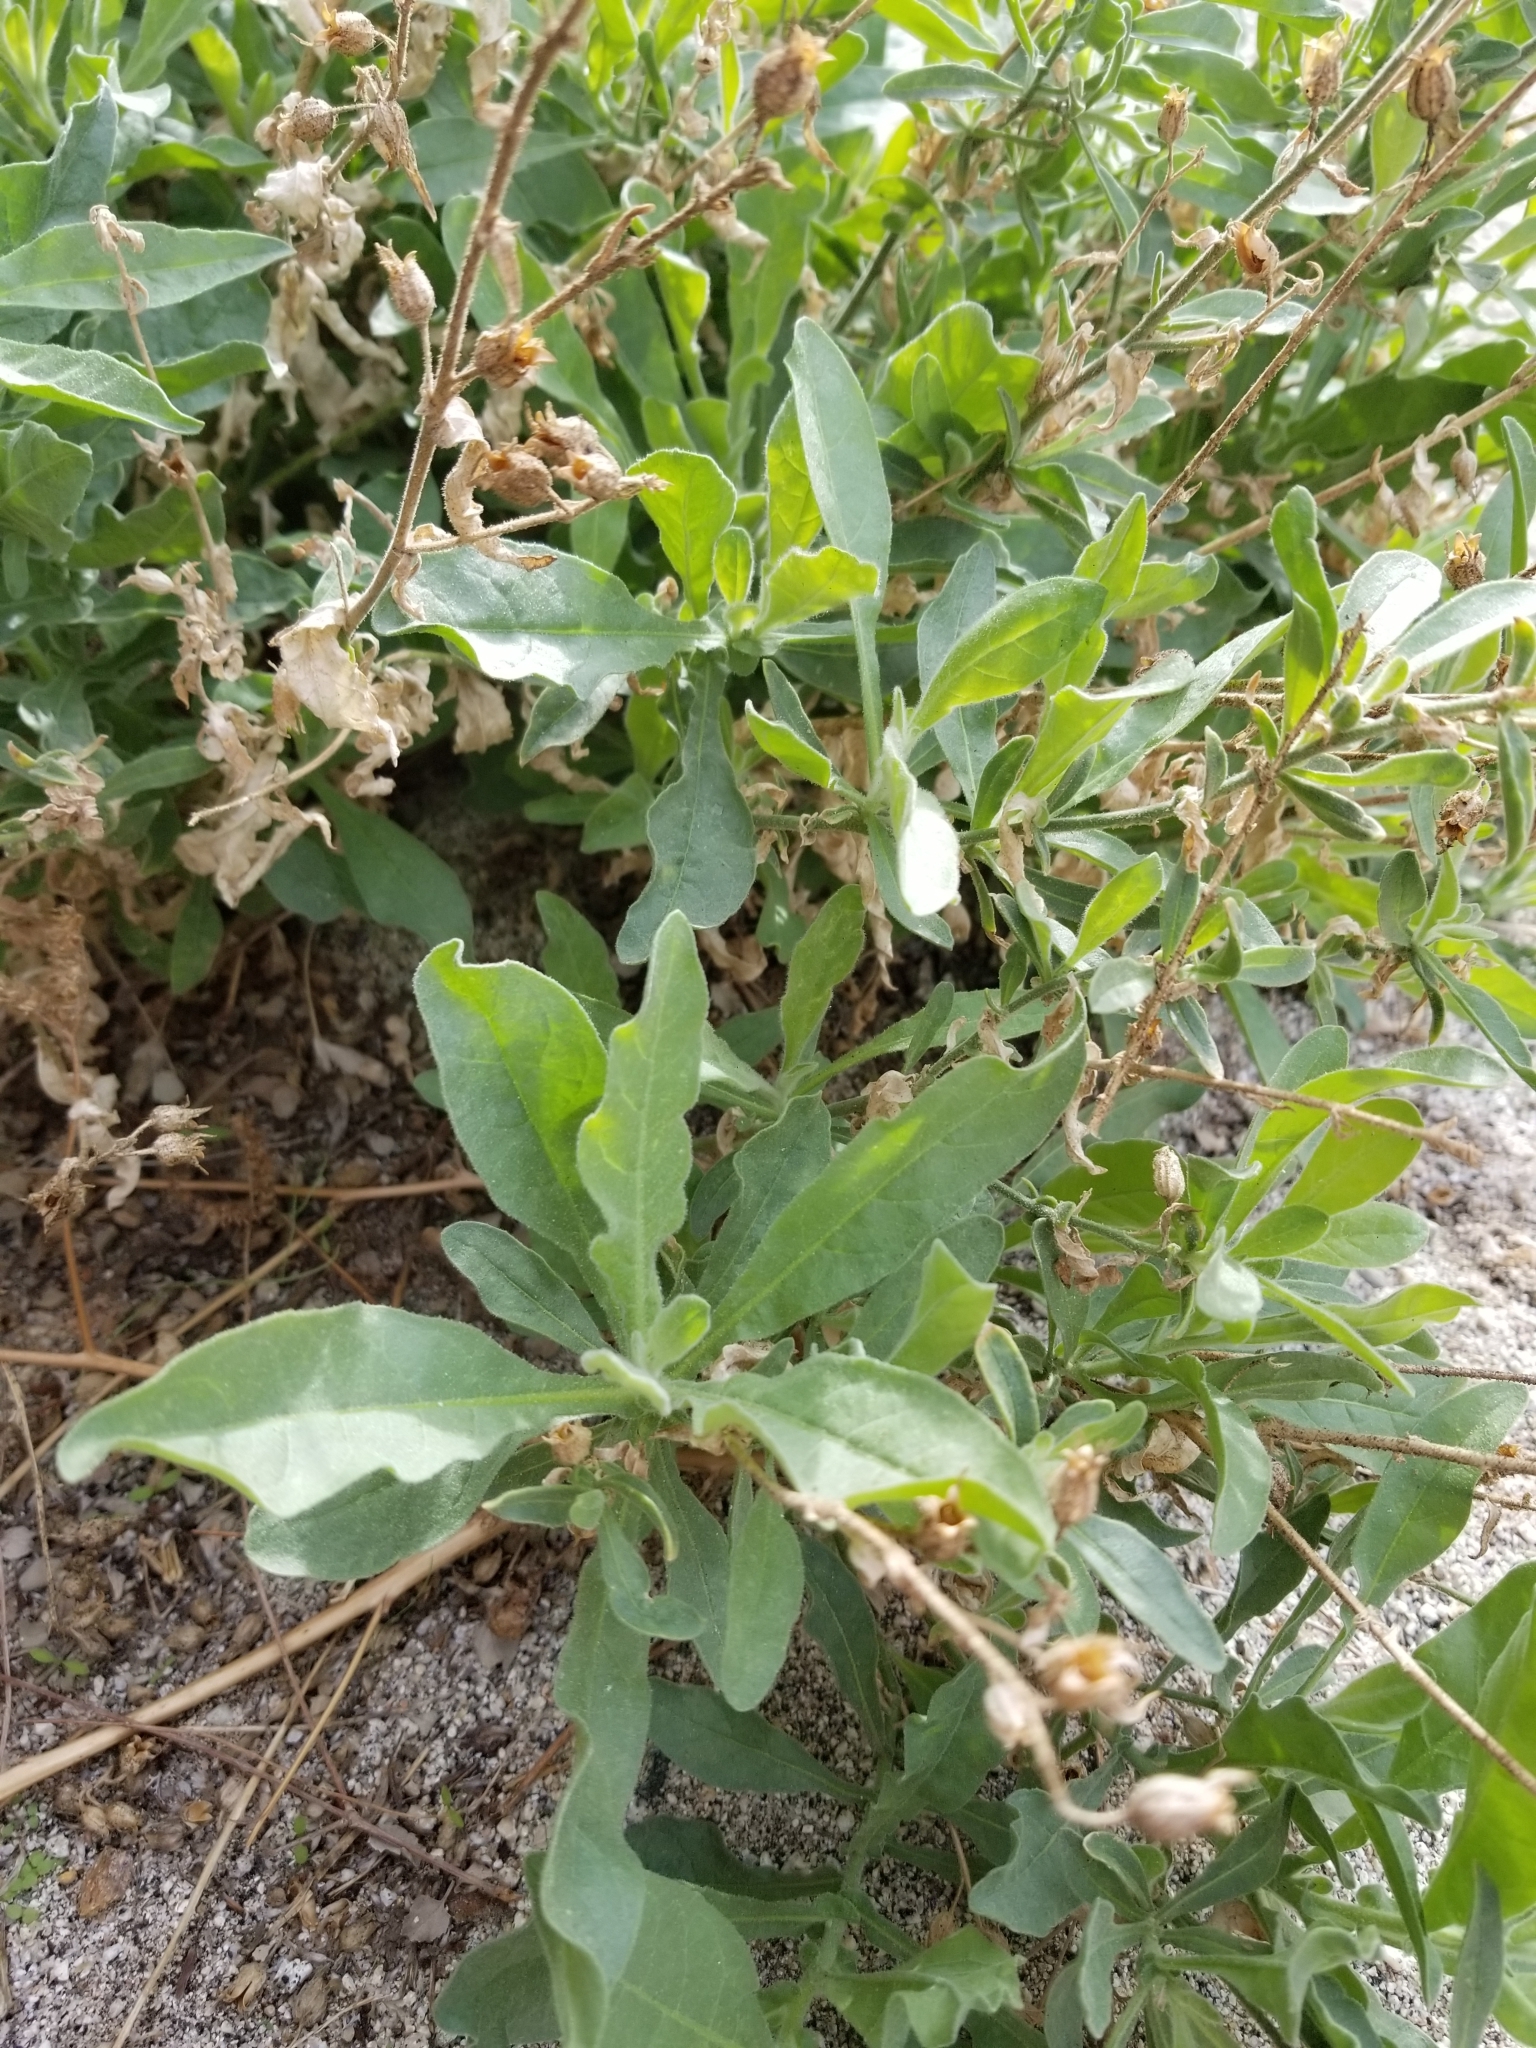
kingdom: Plantae
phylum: Tracheophyta
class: Magnoliopsida
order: Solanales
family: Solanaceae
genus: Nicotiana
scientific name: Nicotiana obtusifolia
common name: Desert tobacco
